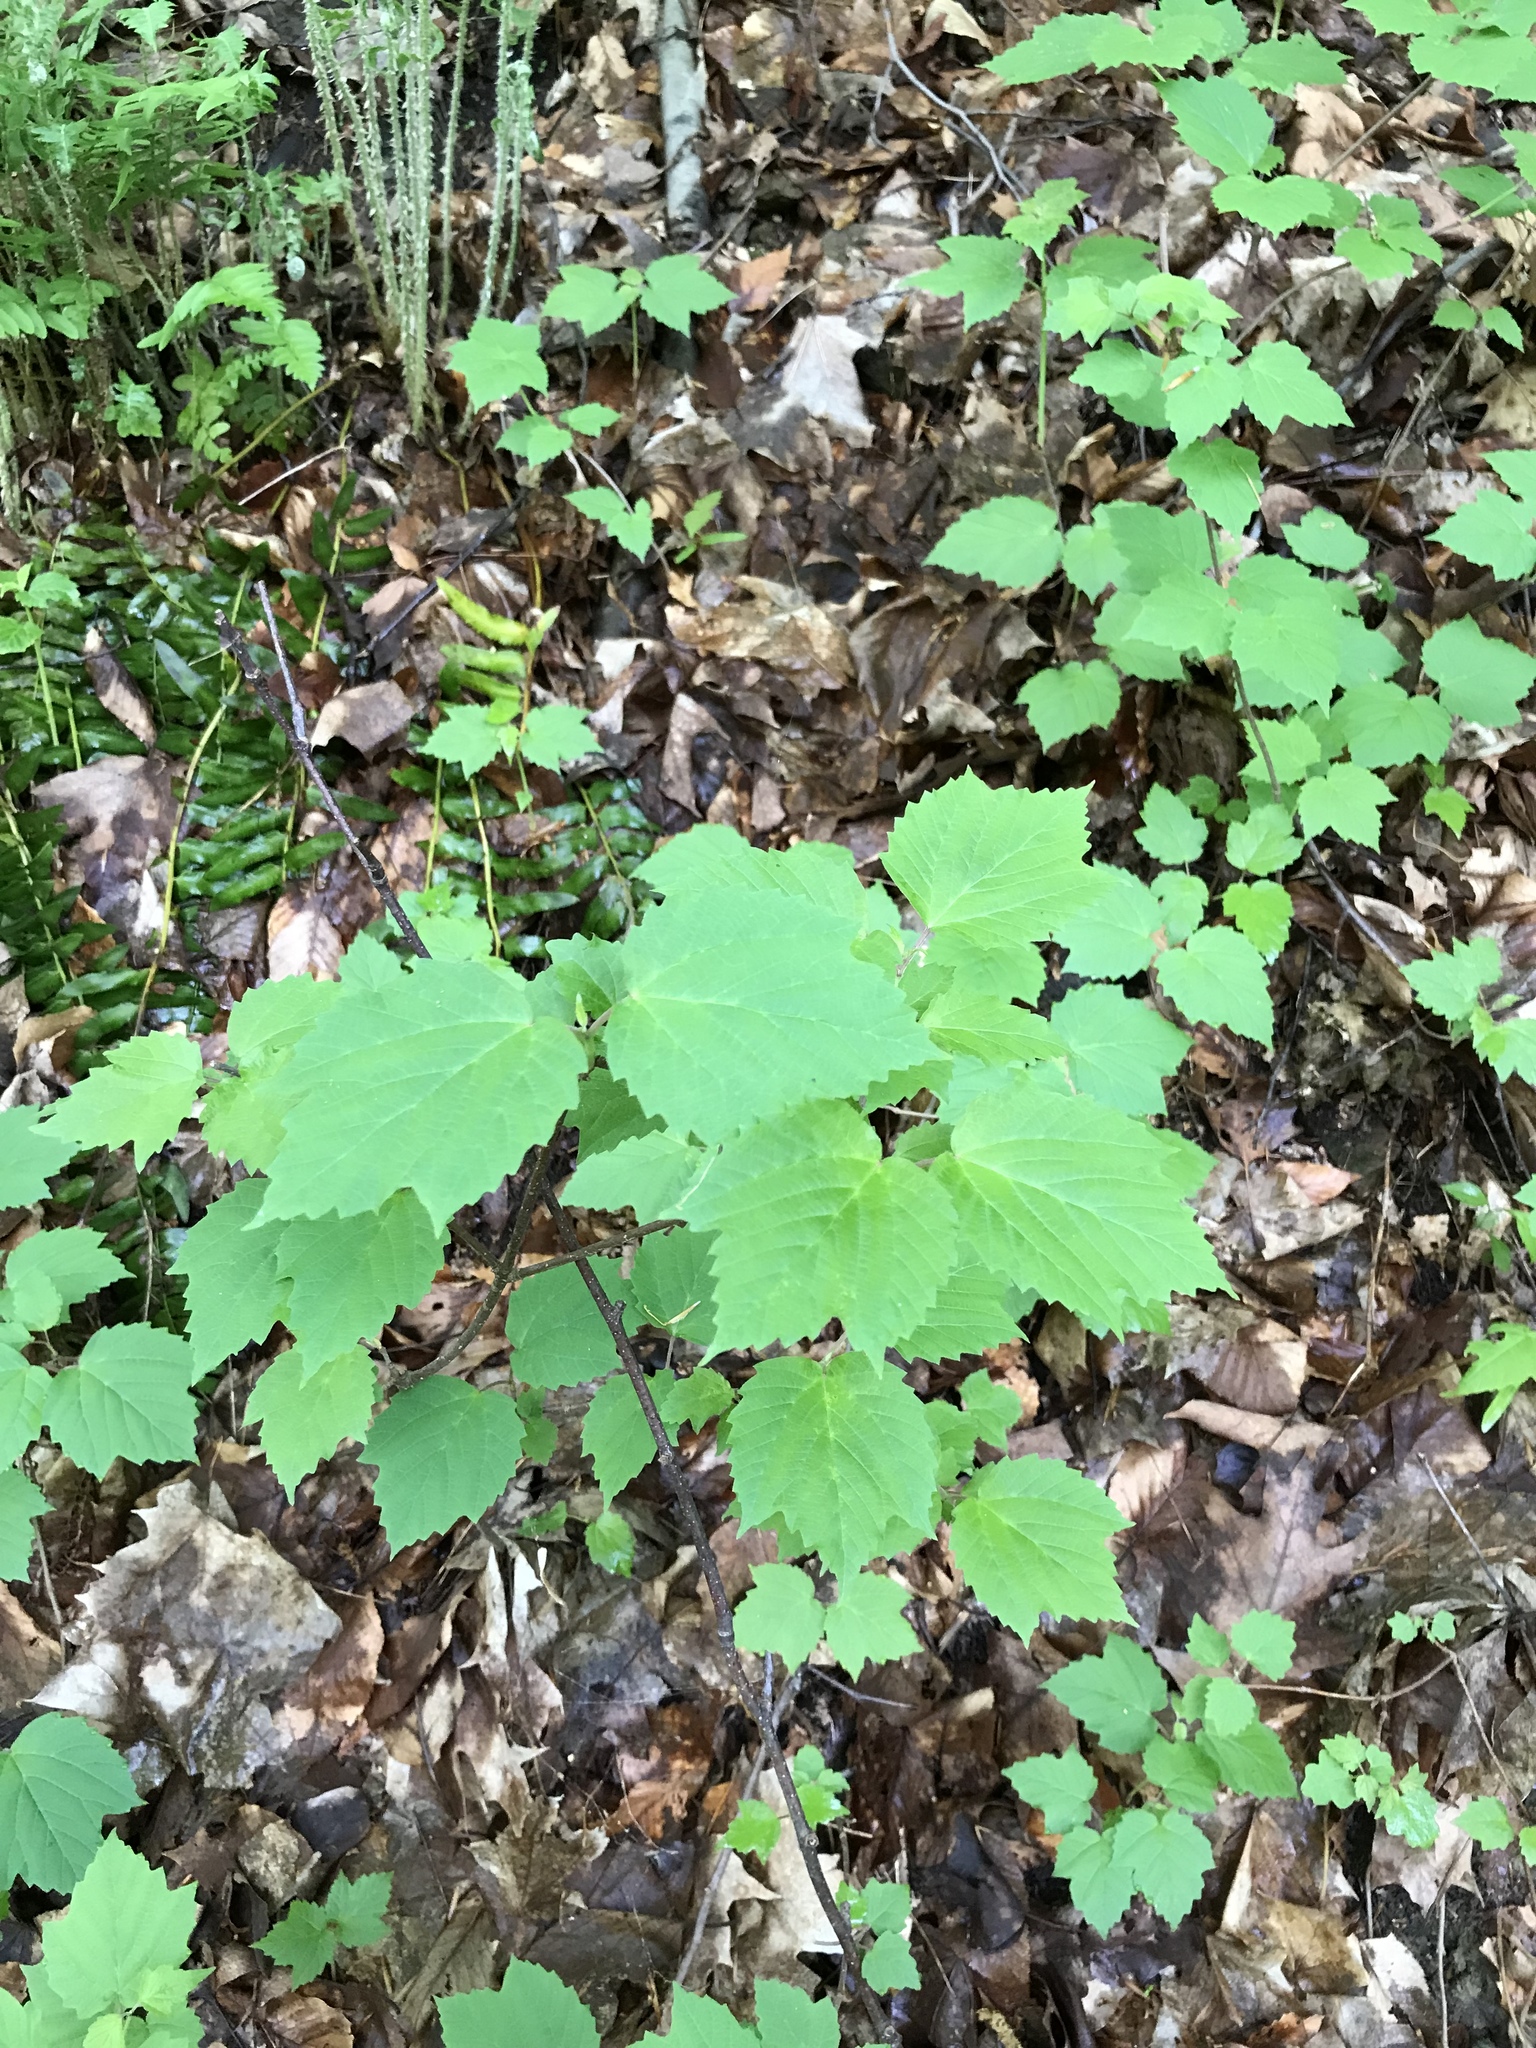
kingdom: Plantae
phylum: Tracheophyta
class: Magnoliopsida
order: Dipsacales
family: Viburnaceae
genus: Viburnum
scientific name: Viburnum acerifolium
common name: Dockmackie
